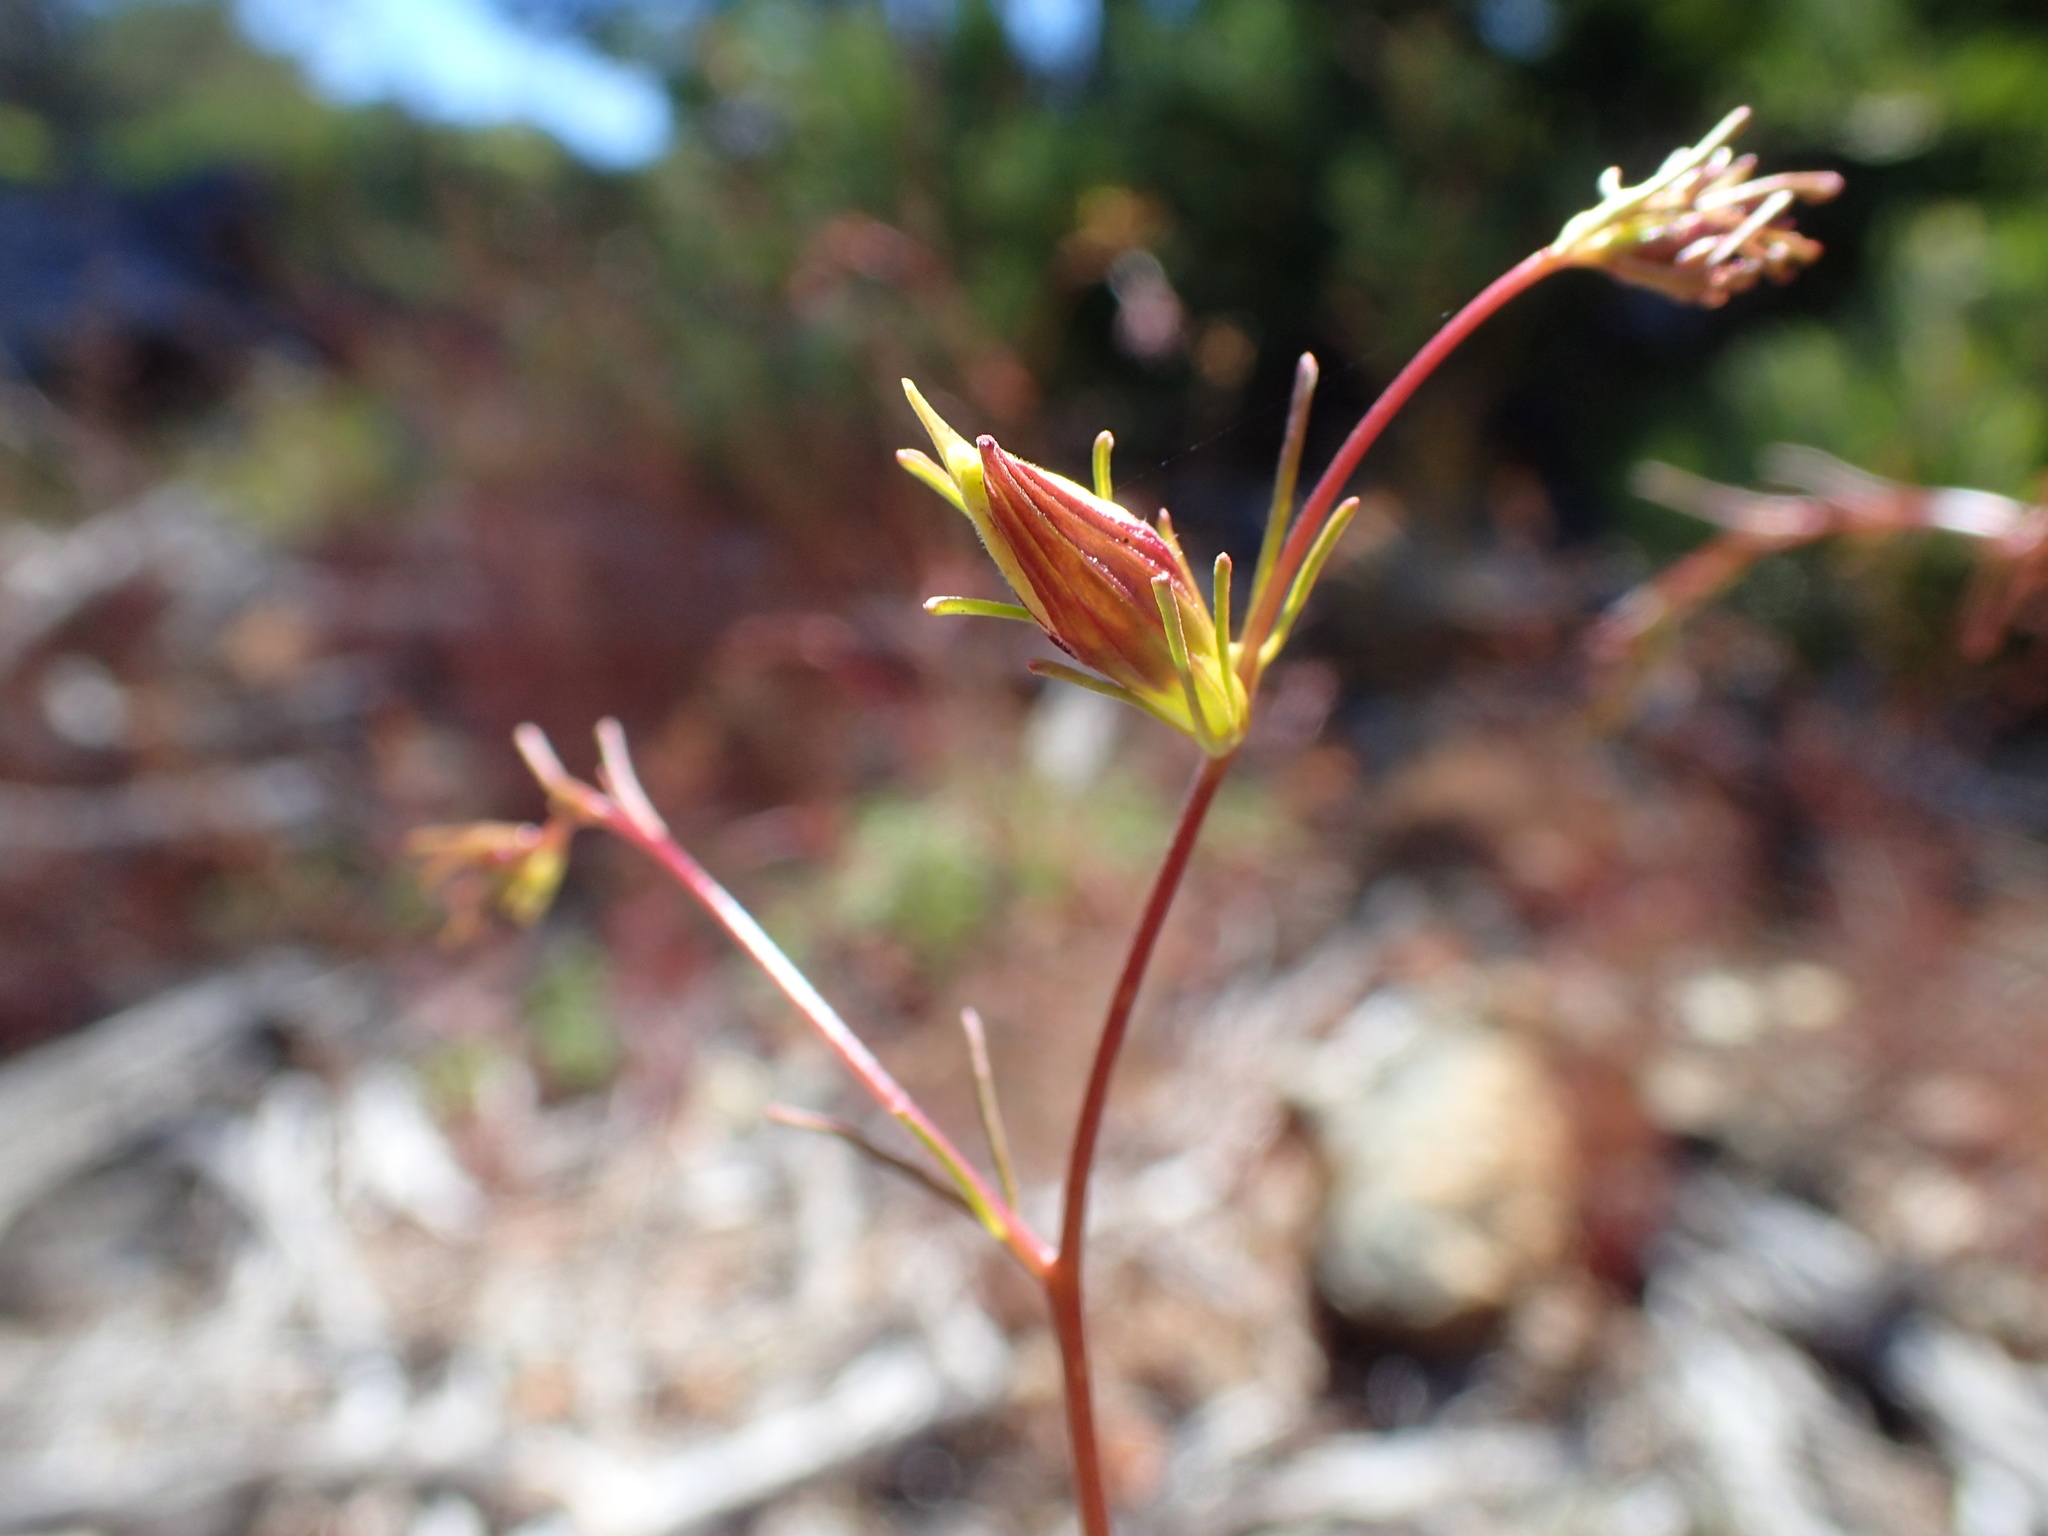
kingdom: Plantae
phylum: Tracheophyta
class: Magnoliopsida
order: Lamiales
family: Orobanchaceae
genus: Cordylanthus
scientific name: Cordylanthus tenuis
